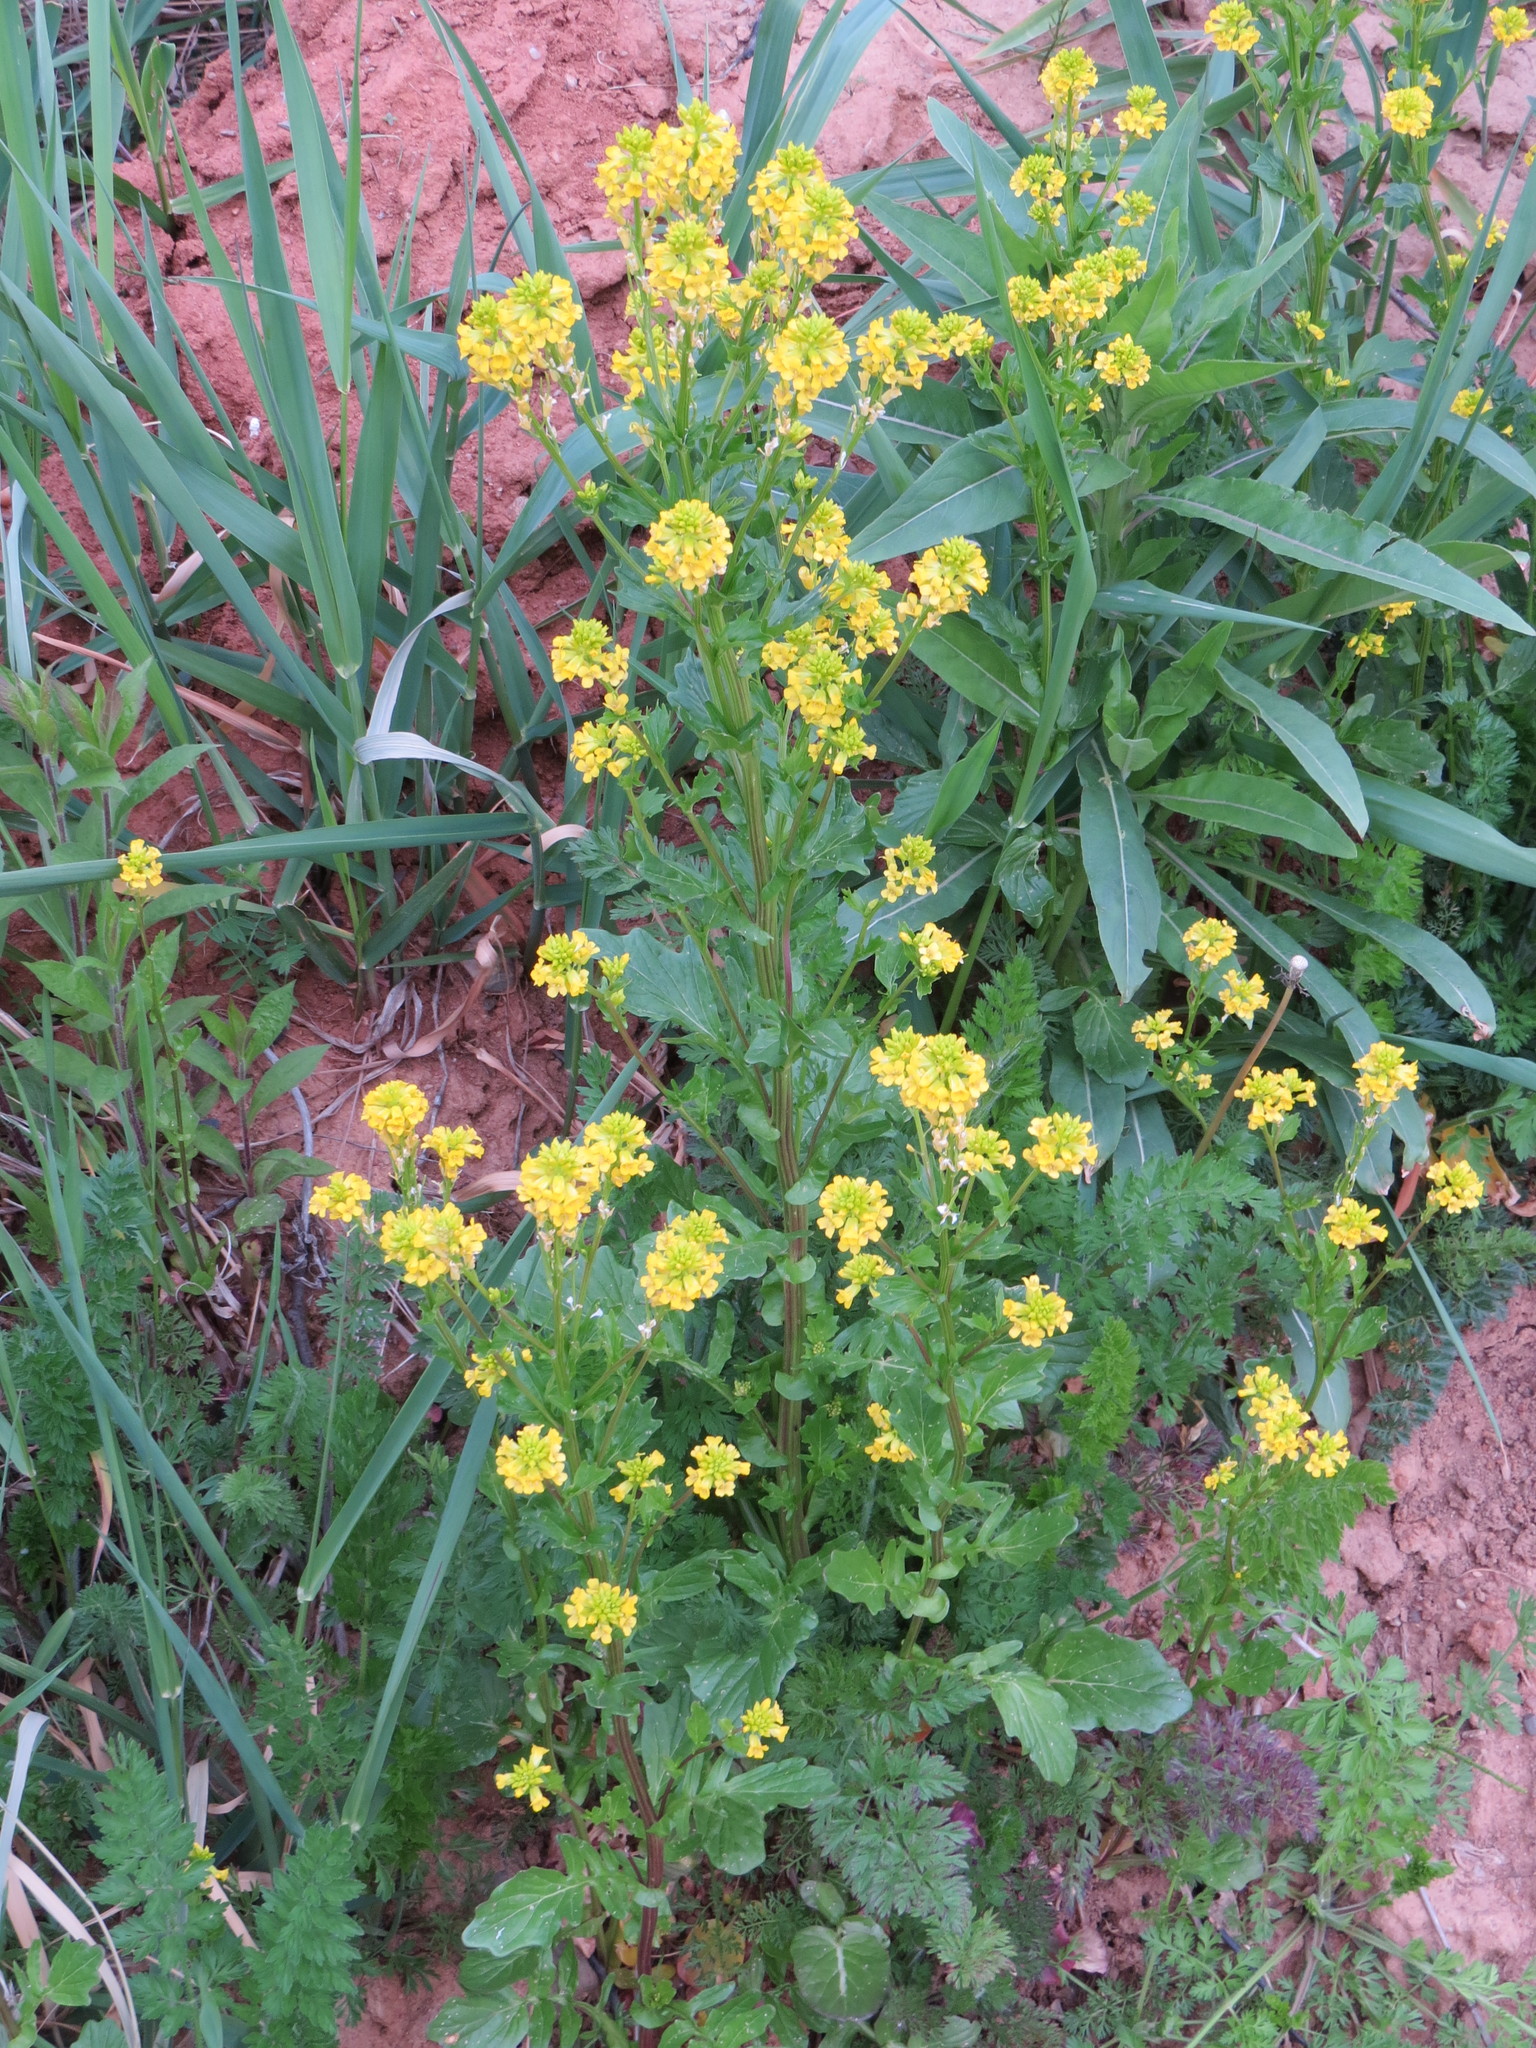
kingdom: Plantae
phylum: Tracheophyta
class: Magnoliopsida
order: Brassicales
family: Brassicaceae
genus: Barbarea
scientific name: Barbarea vulgaris
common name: Cressy-greens
